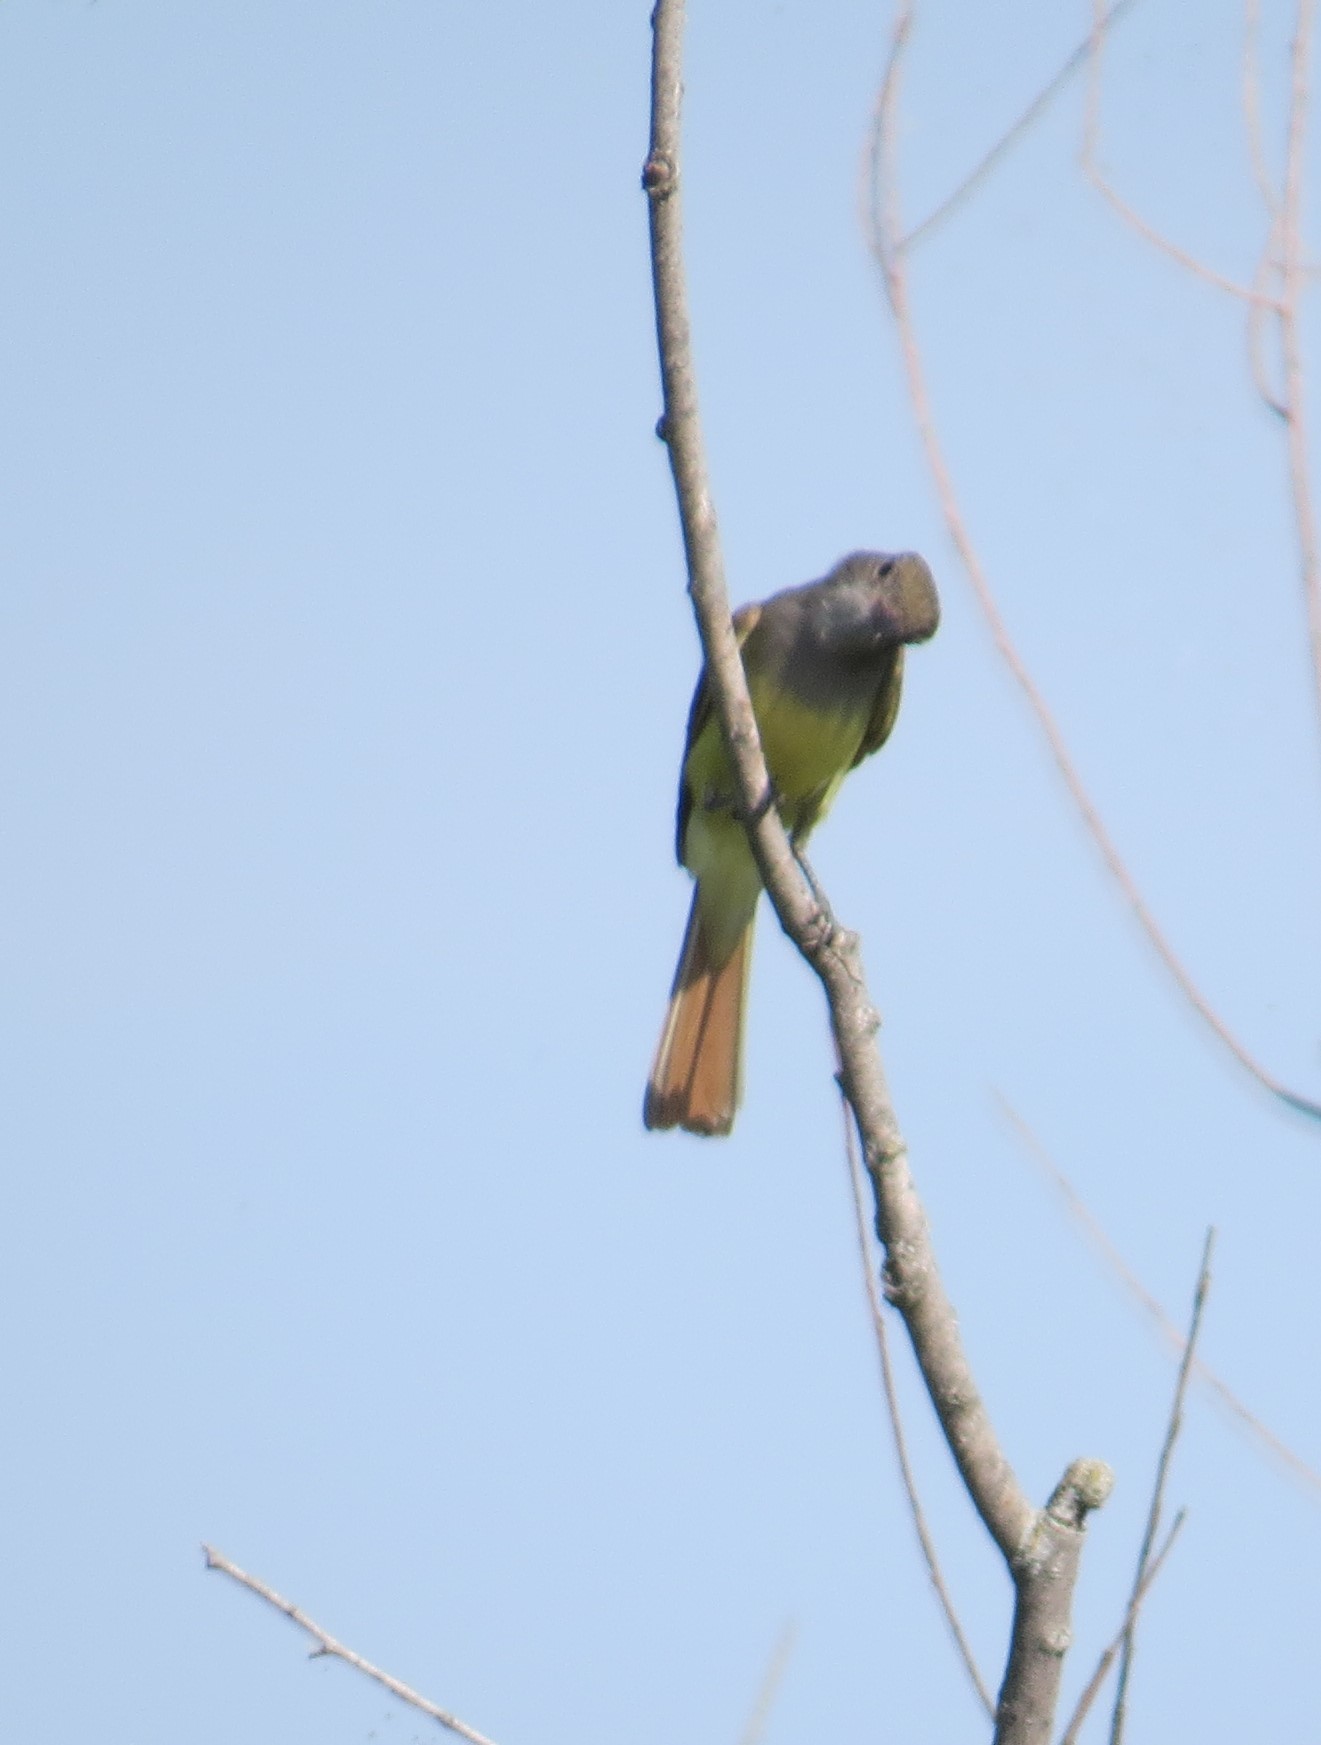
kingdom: Animalia
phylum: Chordata
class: Aves
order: Passeriformes
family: Tyrannidae
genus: Myiarchus
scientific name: Myiarchus crinitus
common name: Great crested flycatcher
